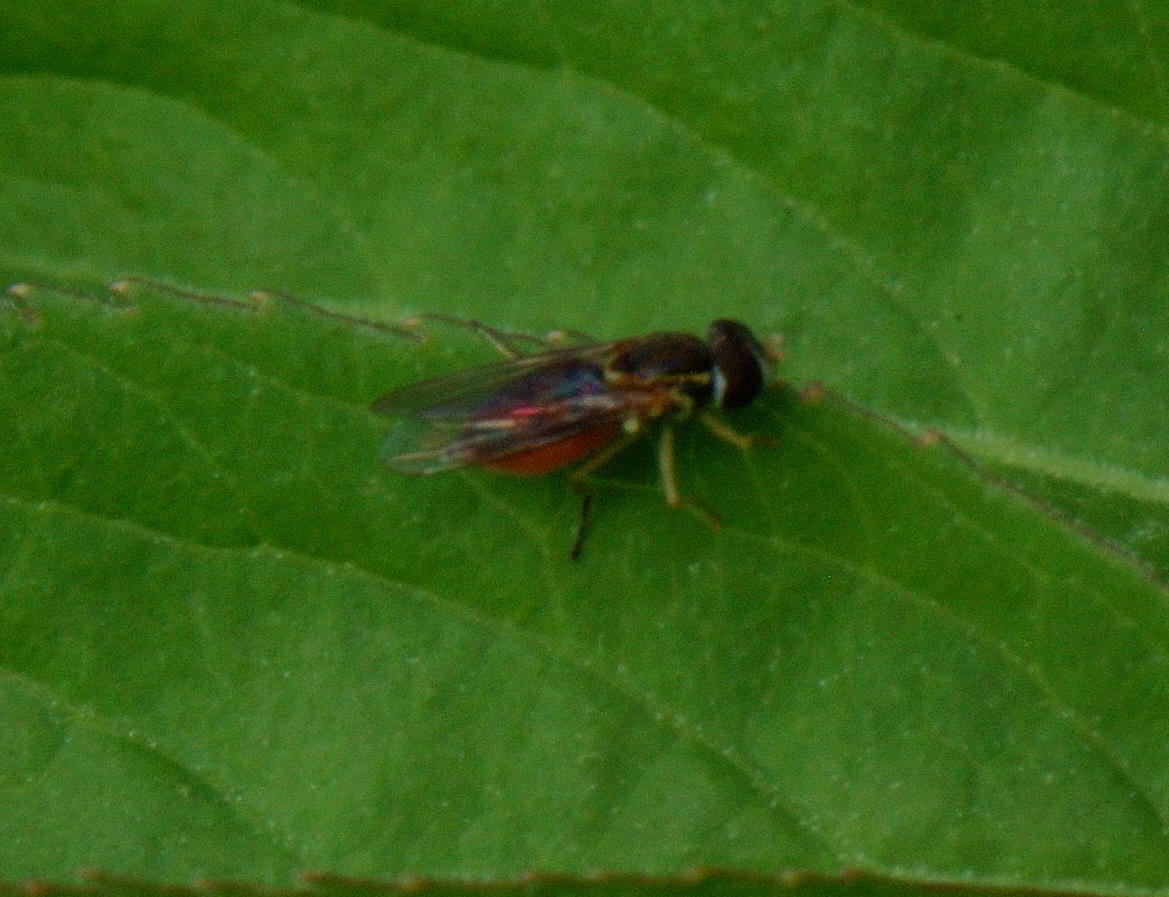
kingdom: Animalia
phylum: Arthropoda
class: Insecta
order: Diptera
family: Syrphidae
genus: Toxomerus
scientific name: Toxomerus
